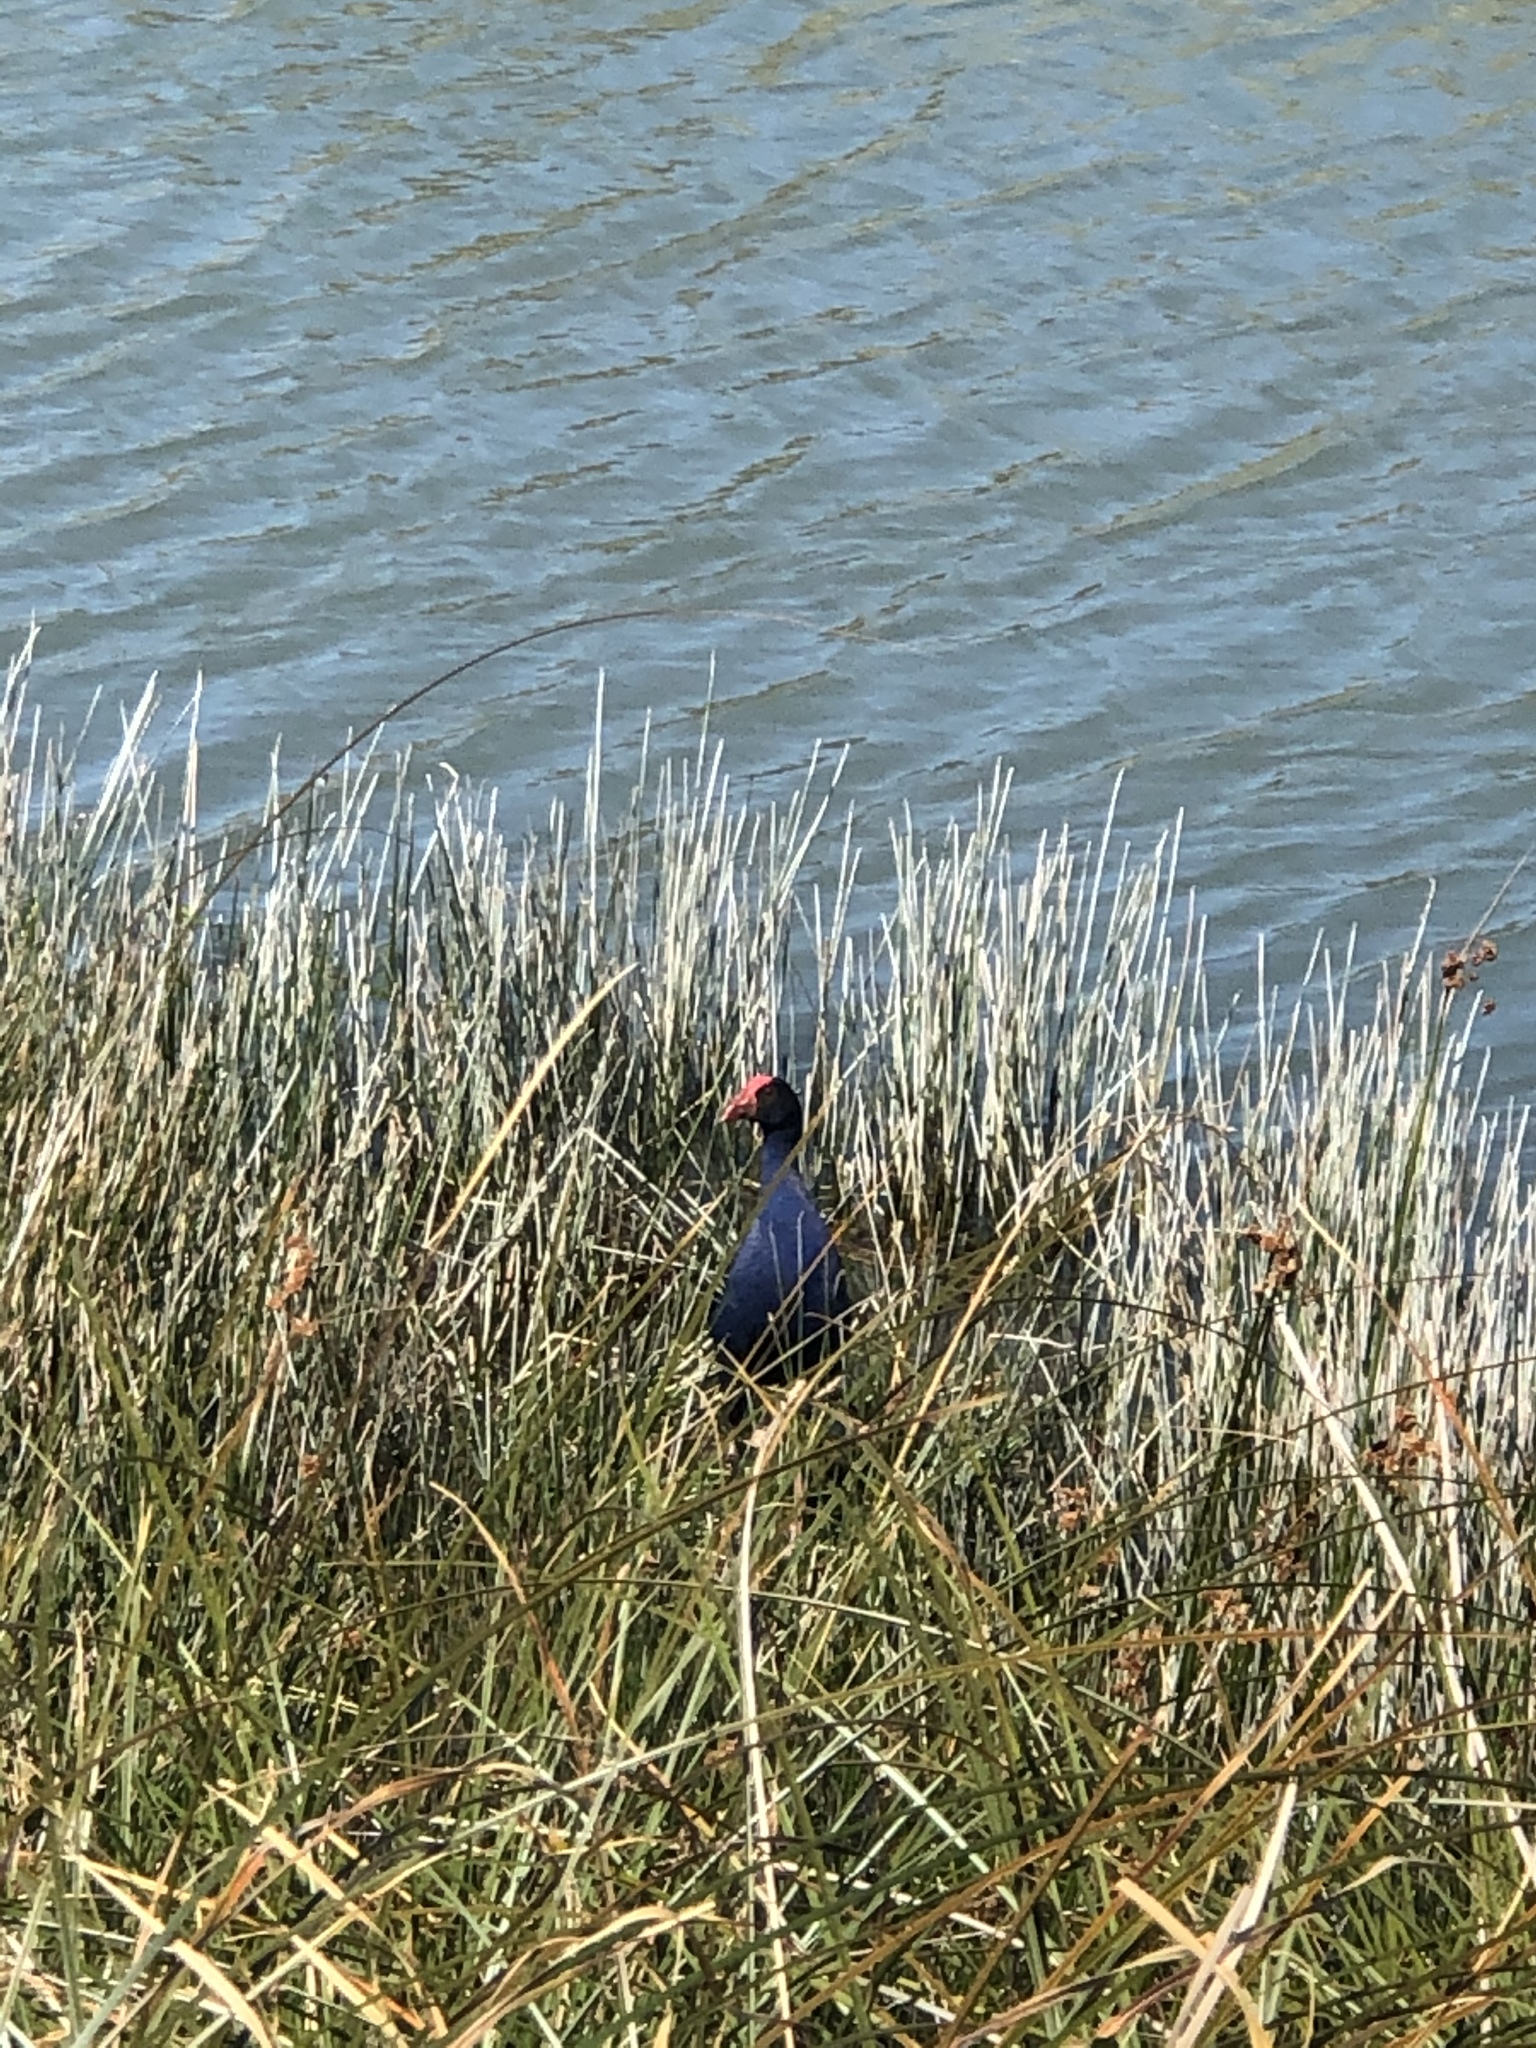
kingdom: Animalia
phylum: Chordata
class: Aves
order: Gruiformes
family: Rallidae
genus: Porphyrio
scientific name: Porphyrio melanotus
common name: Australasian swamphen
